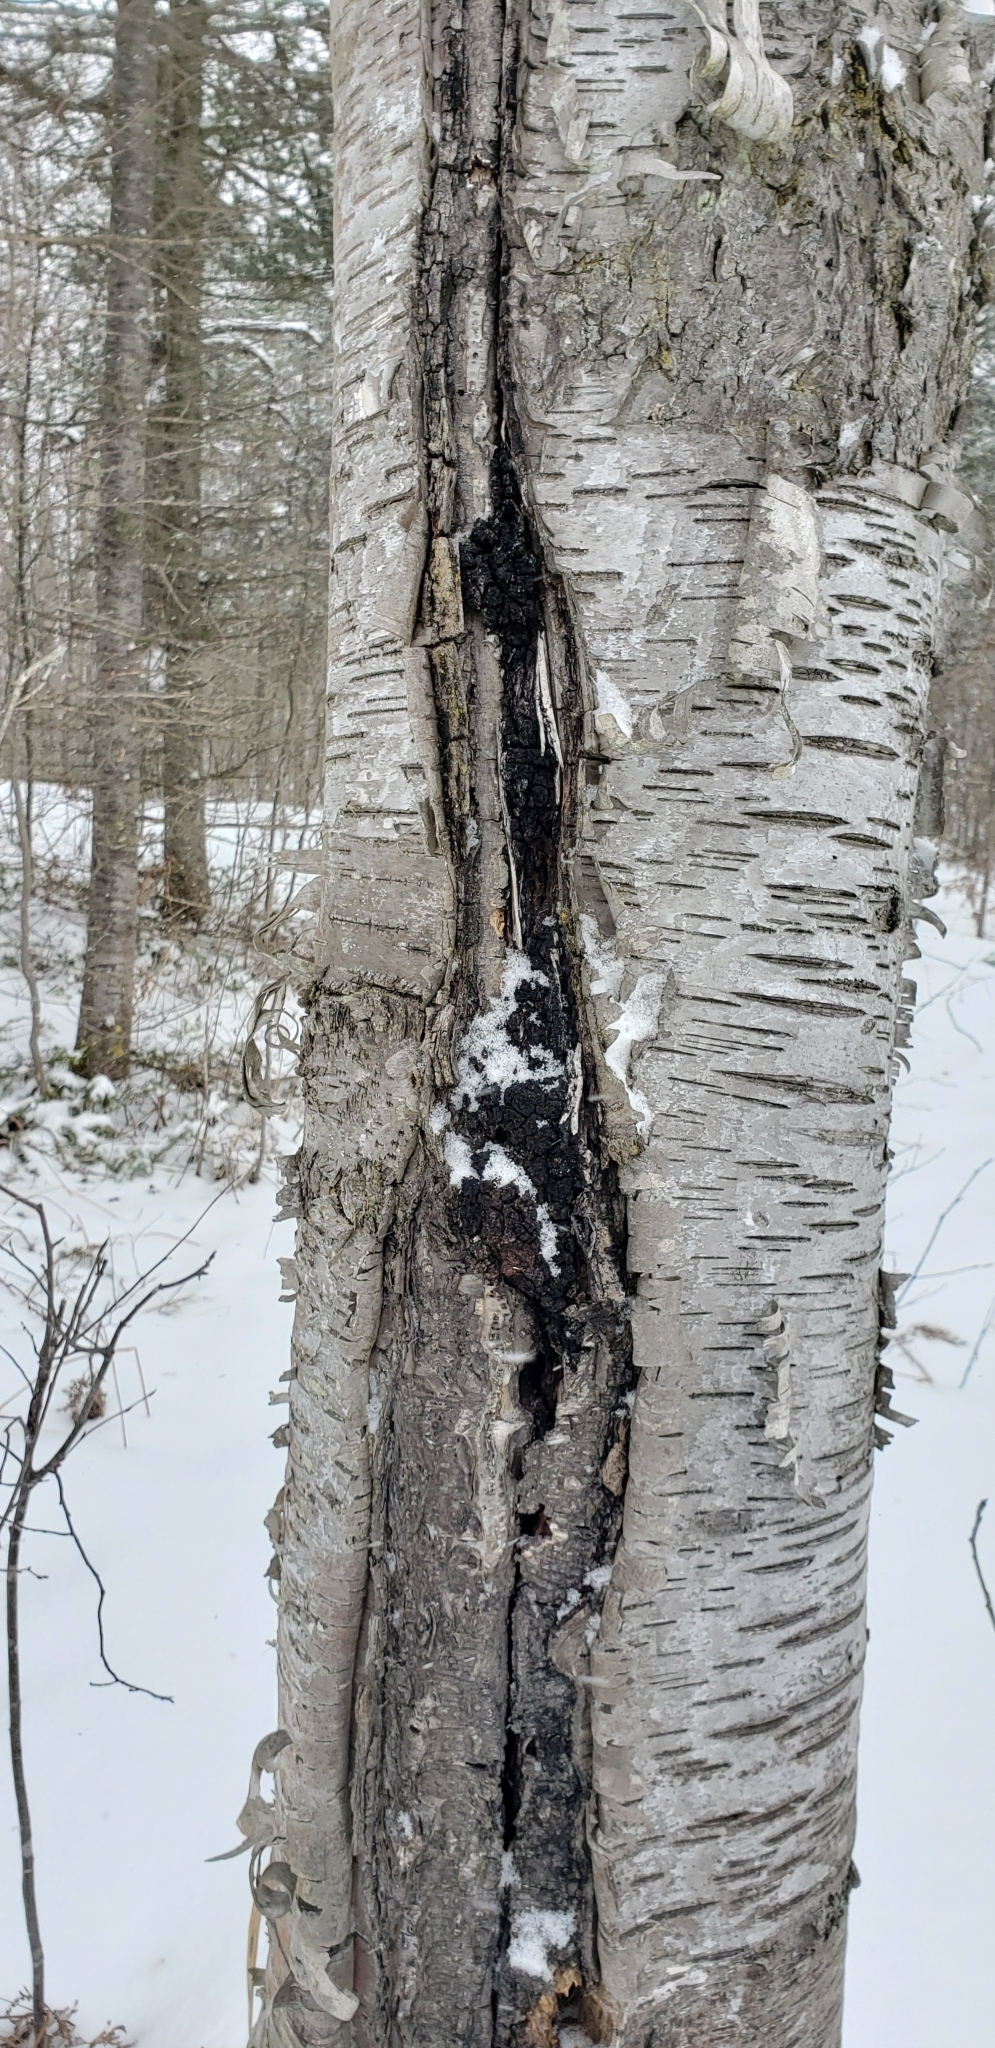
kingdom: Fungi
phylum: Basidiomycota
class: Agaricomycetes
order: Hymenochaetales
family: Hymenochaetaceae
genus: Inonotus
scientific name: Inonotus obliquus
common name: Chaga
